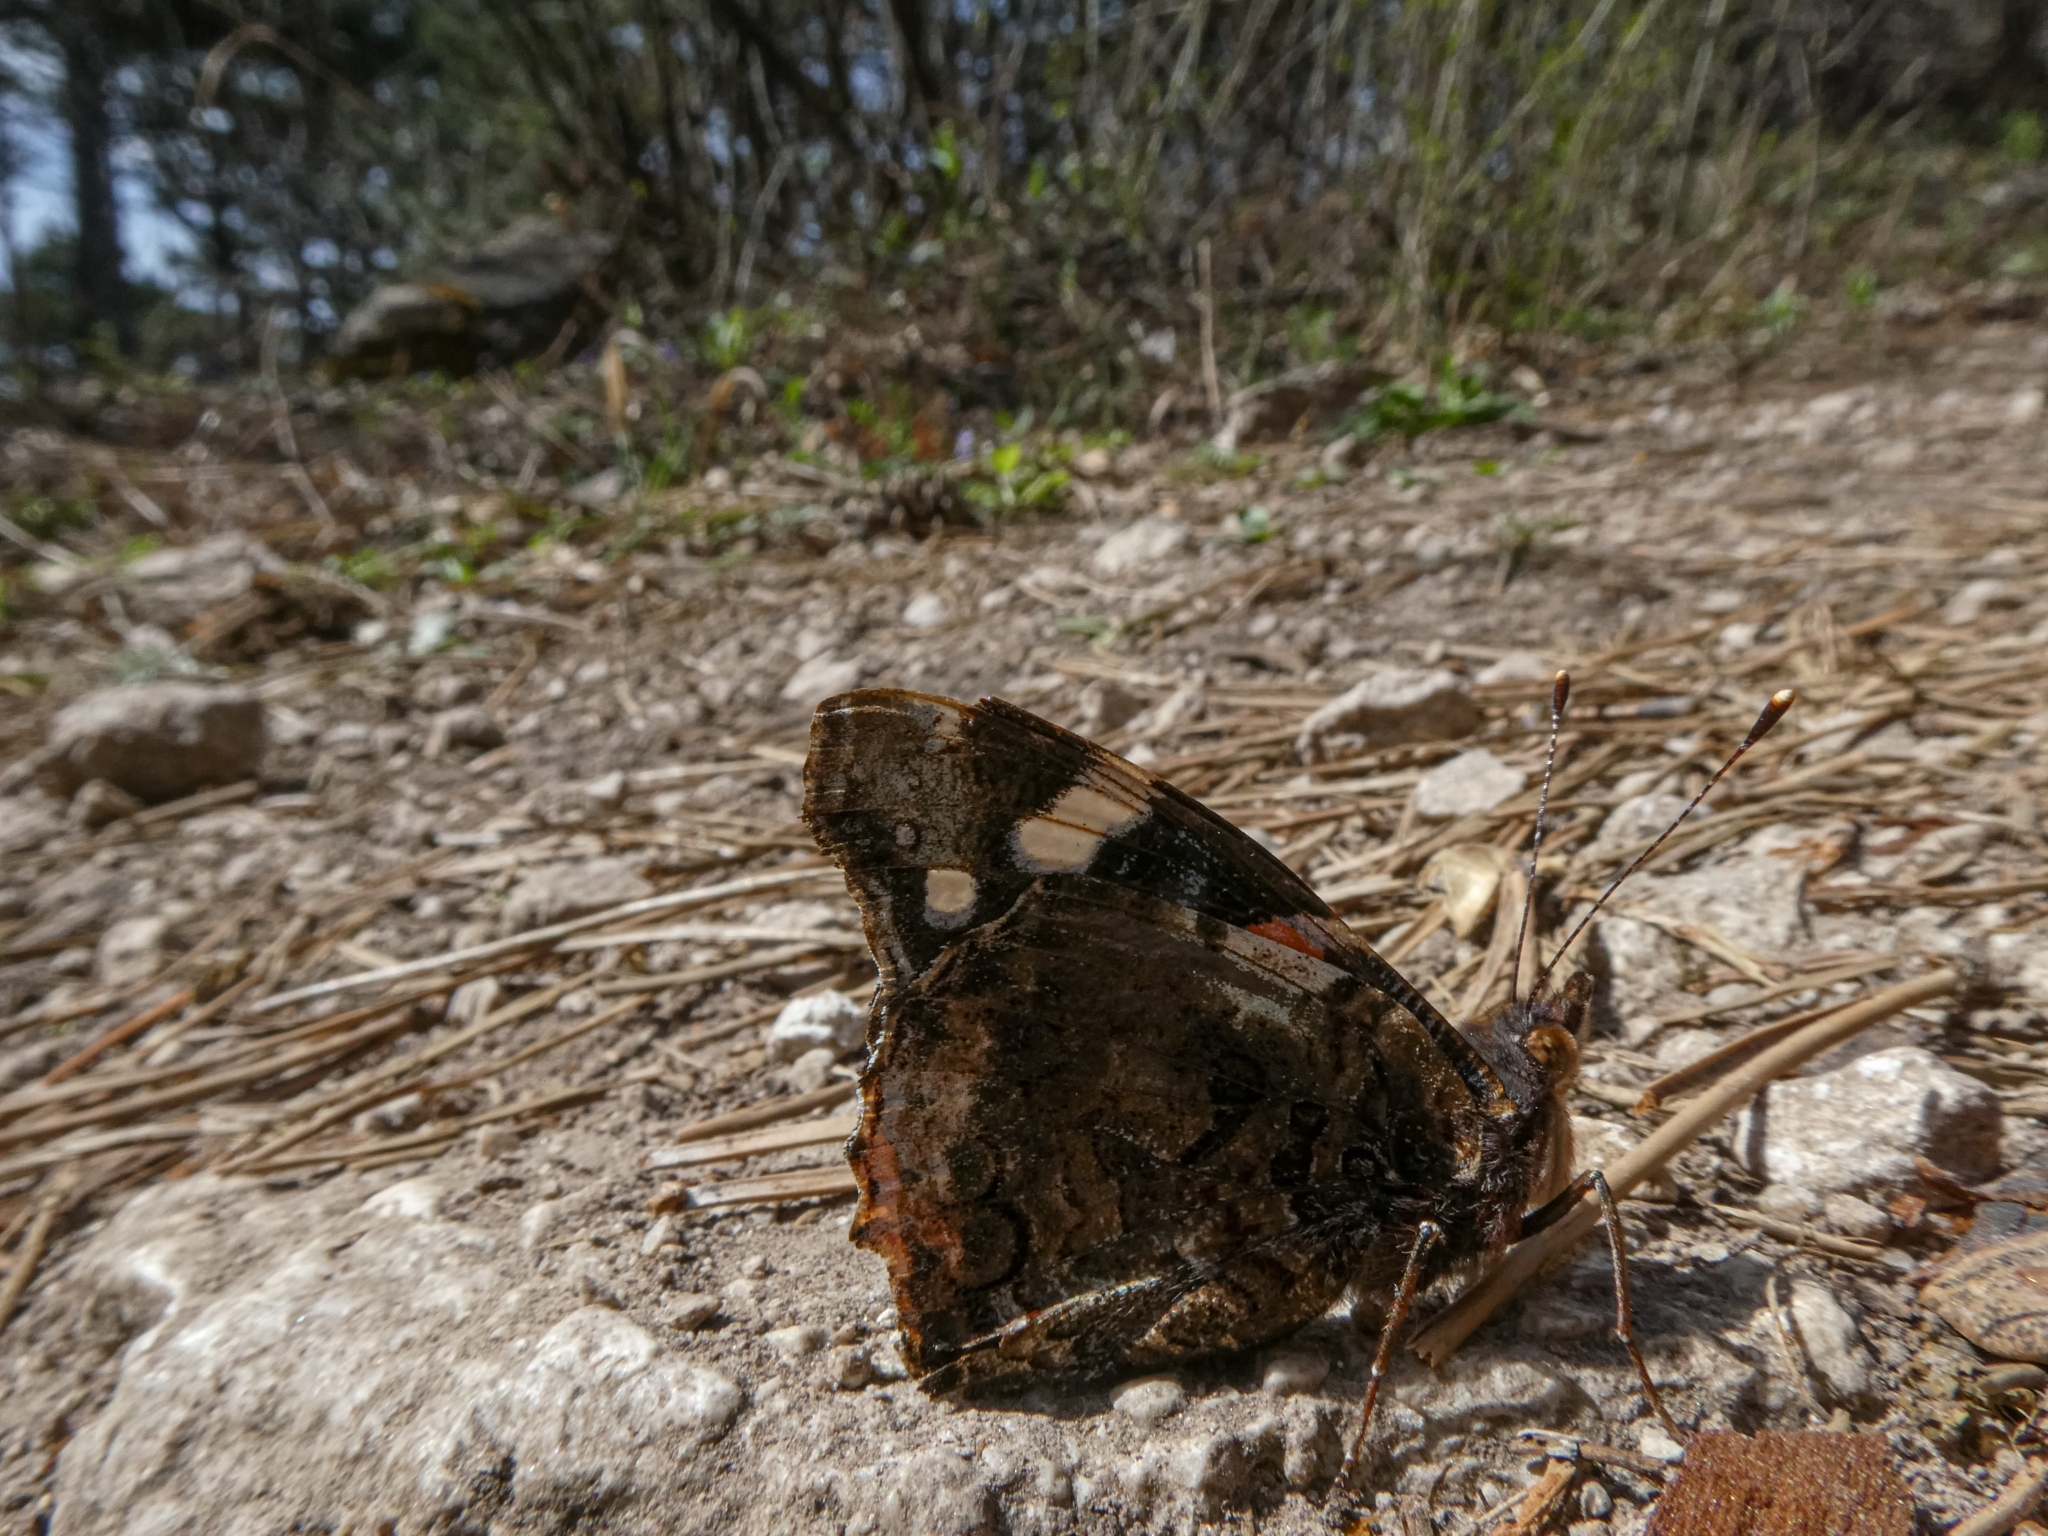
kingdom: Animalia
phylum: Arthropoda
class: Insecta
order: Lepidoptera
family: Nymphalidae
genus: Vanessa
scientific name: Vanessa atalanta
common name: Red admiral
